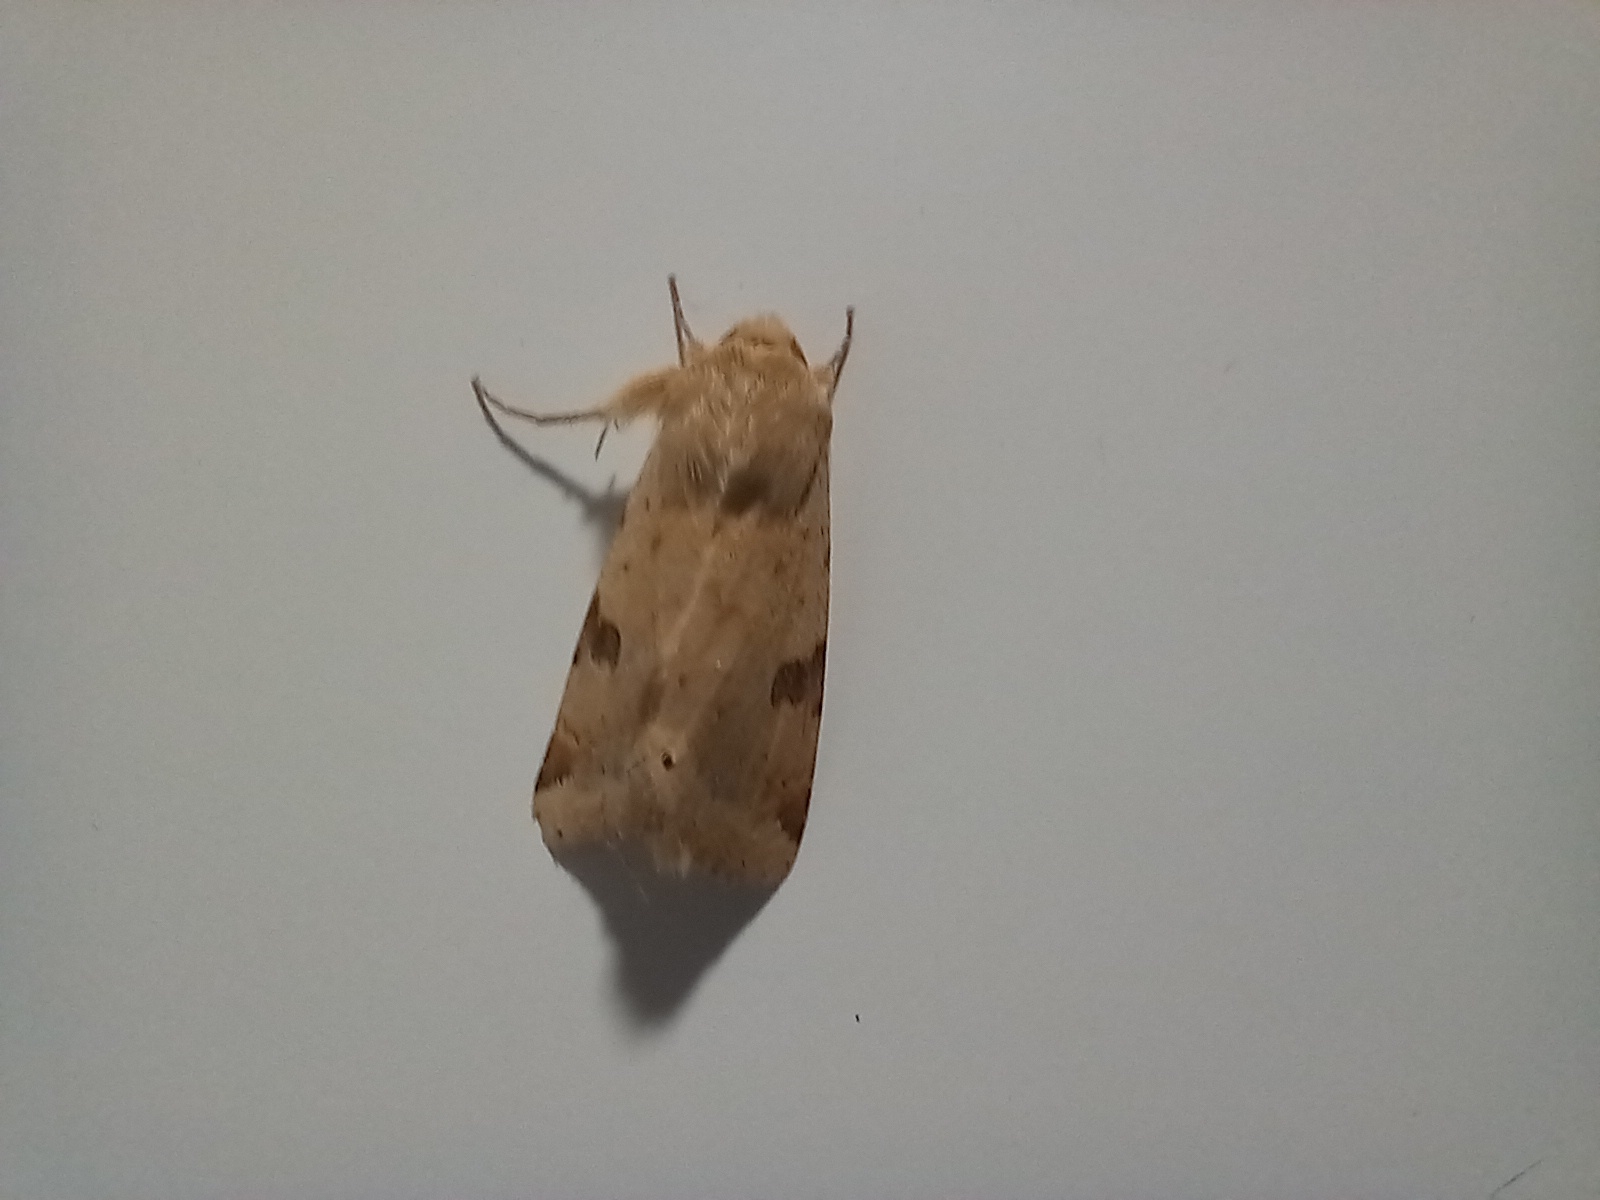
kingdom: Animalia
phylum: Arthropoda
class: Insecta
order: Lepidoptera
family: Noctuidae
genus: Heliothis
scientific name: Heliothis peltigera
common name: Bordered straw
